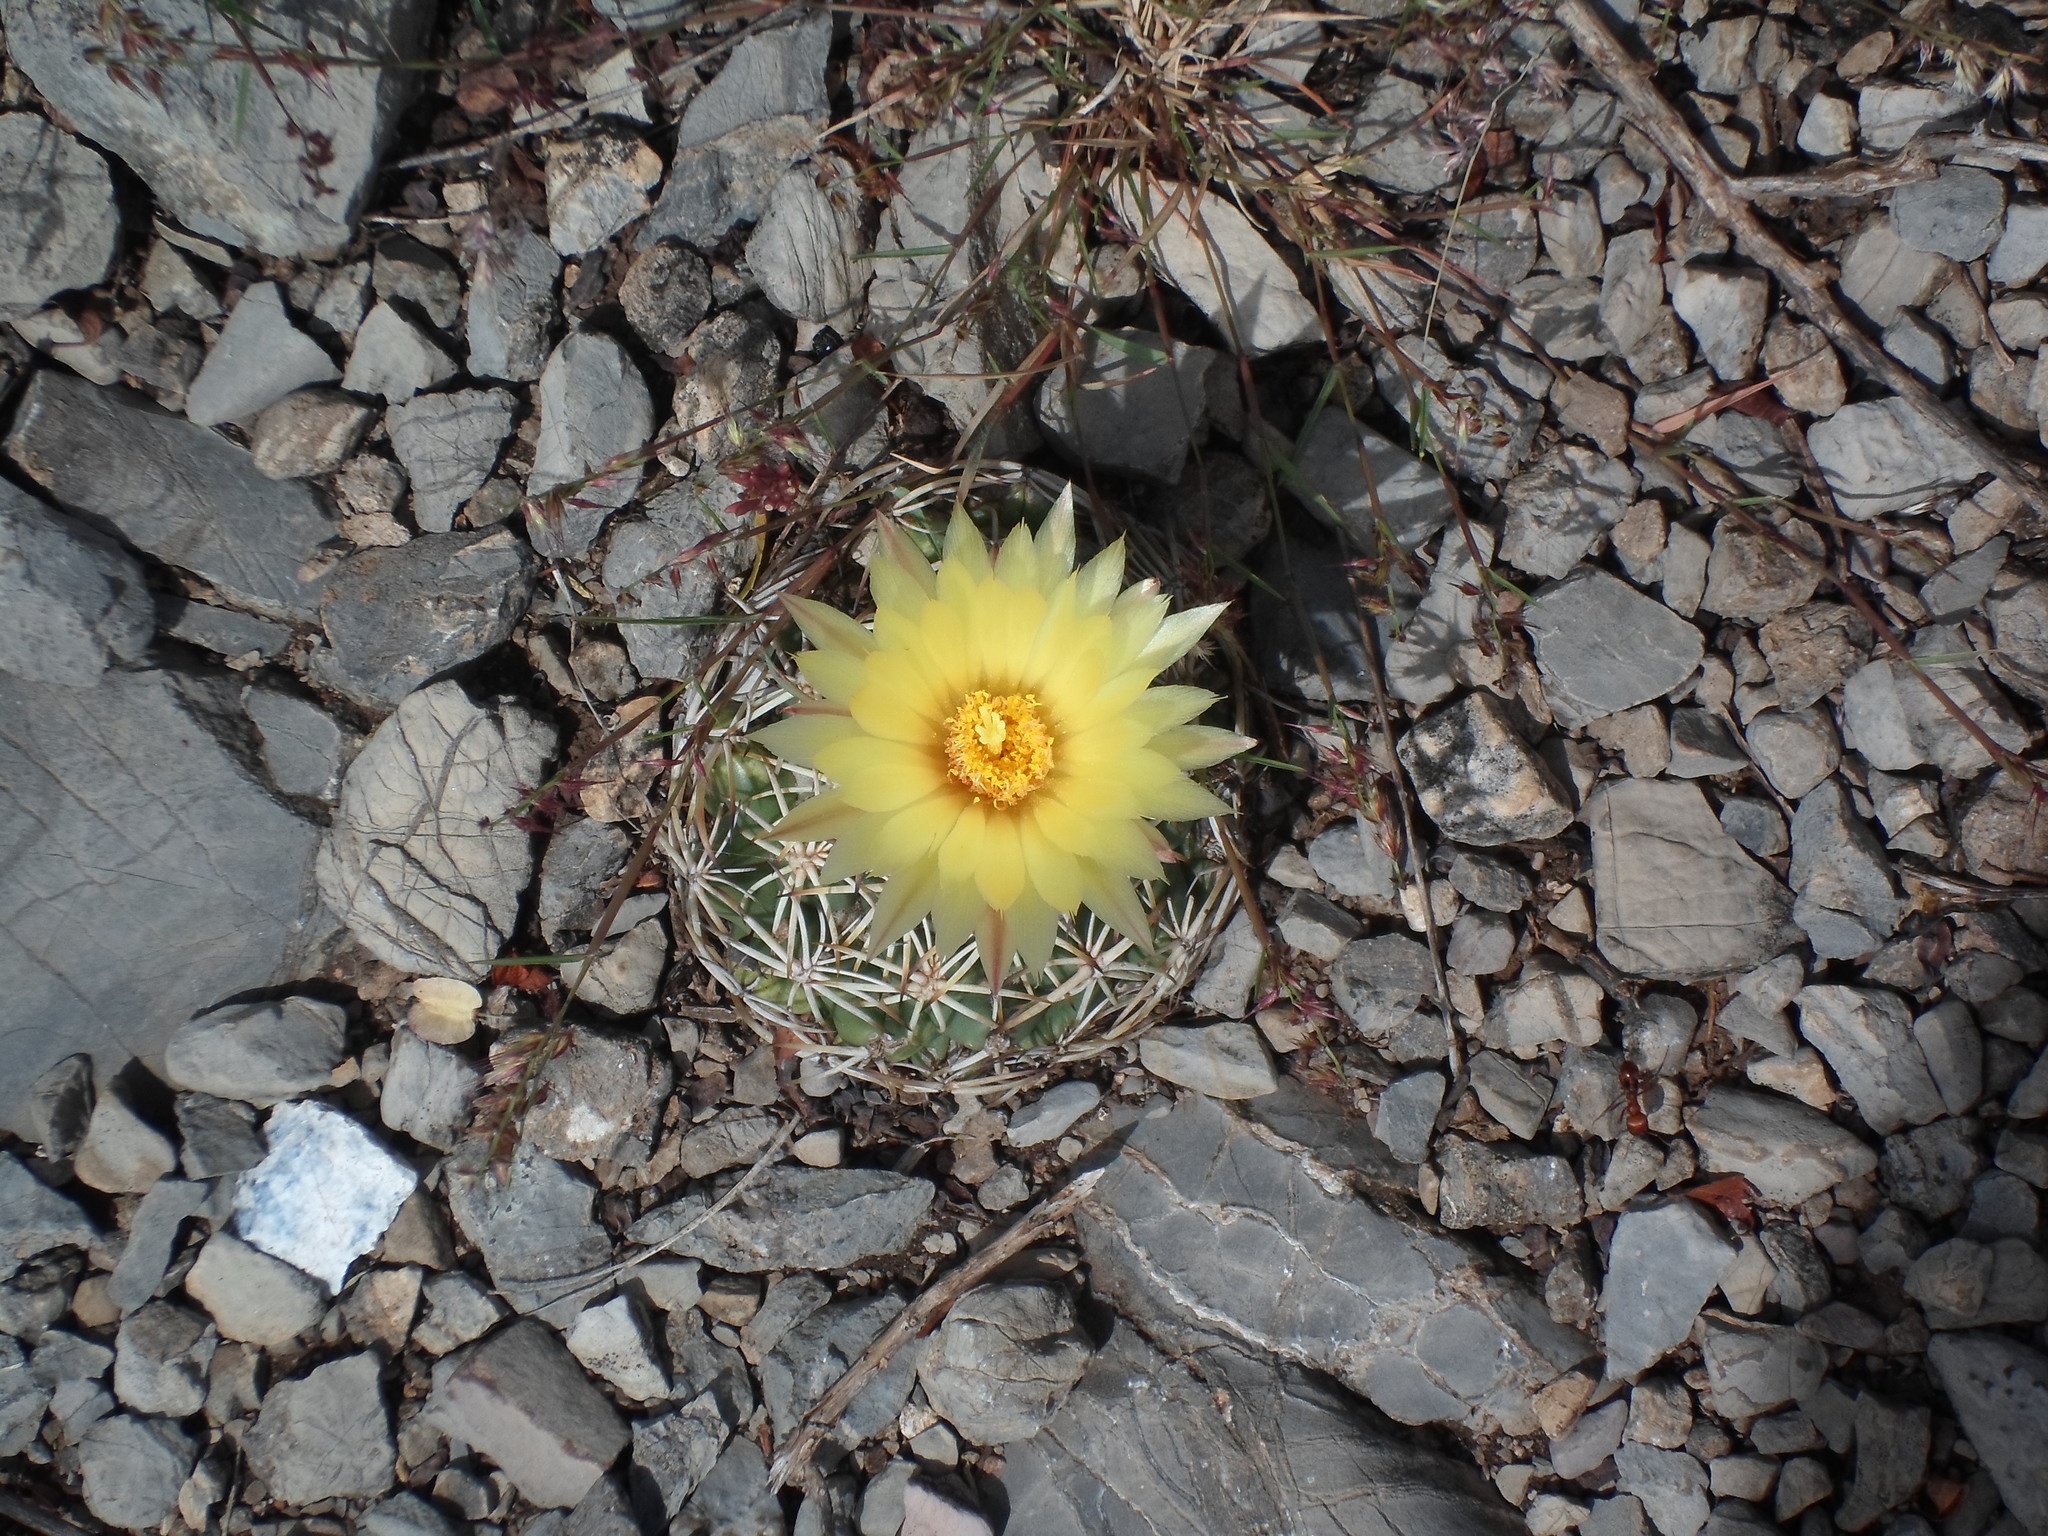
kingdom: Plantae
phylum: Tracheophyta
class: Magnoliopsida
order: Caryophyllales
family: Cactaceae
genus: Coryphantha
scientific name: Coryphantha retusa
